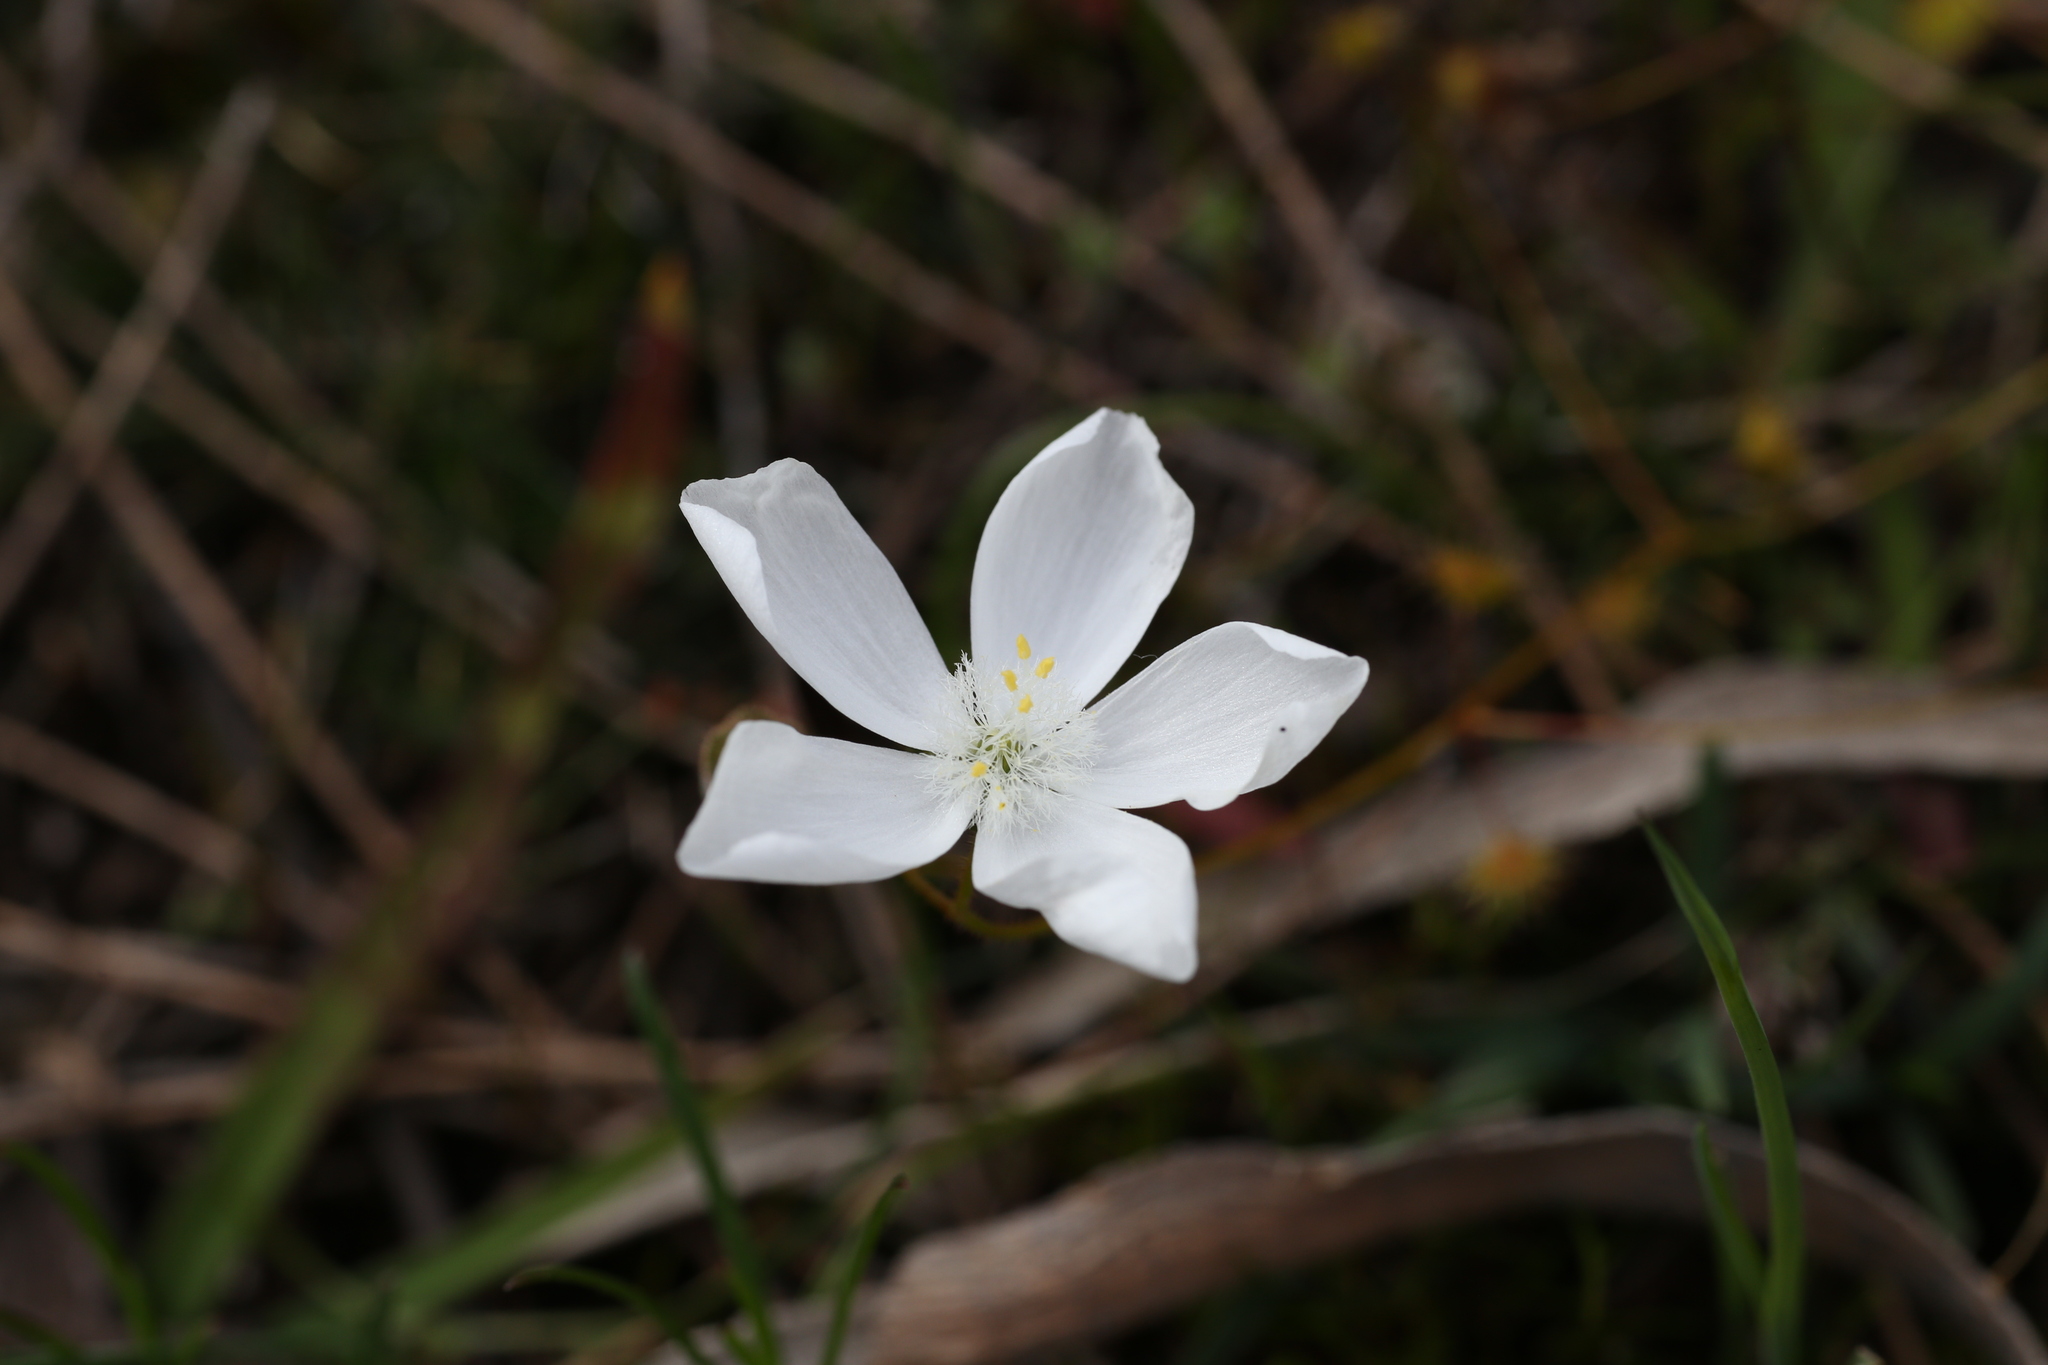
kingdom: Plantae
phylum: Tracheophyta
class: Magnoliopsida
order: Caryophyllales
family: Droseraceae
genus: Drosera
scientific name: Drosera macrantha
